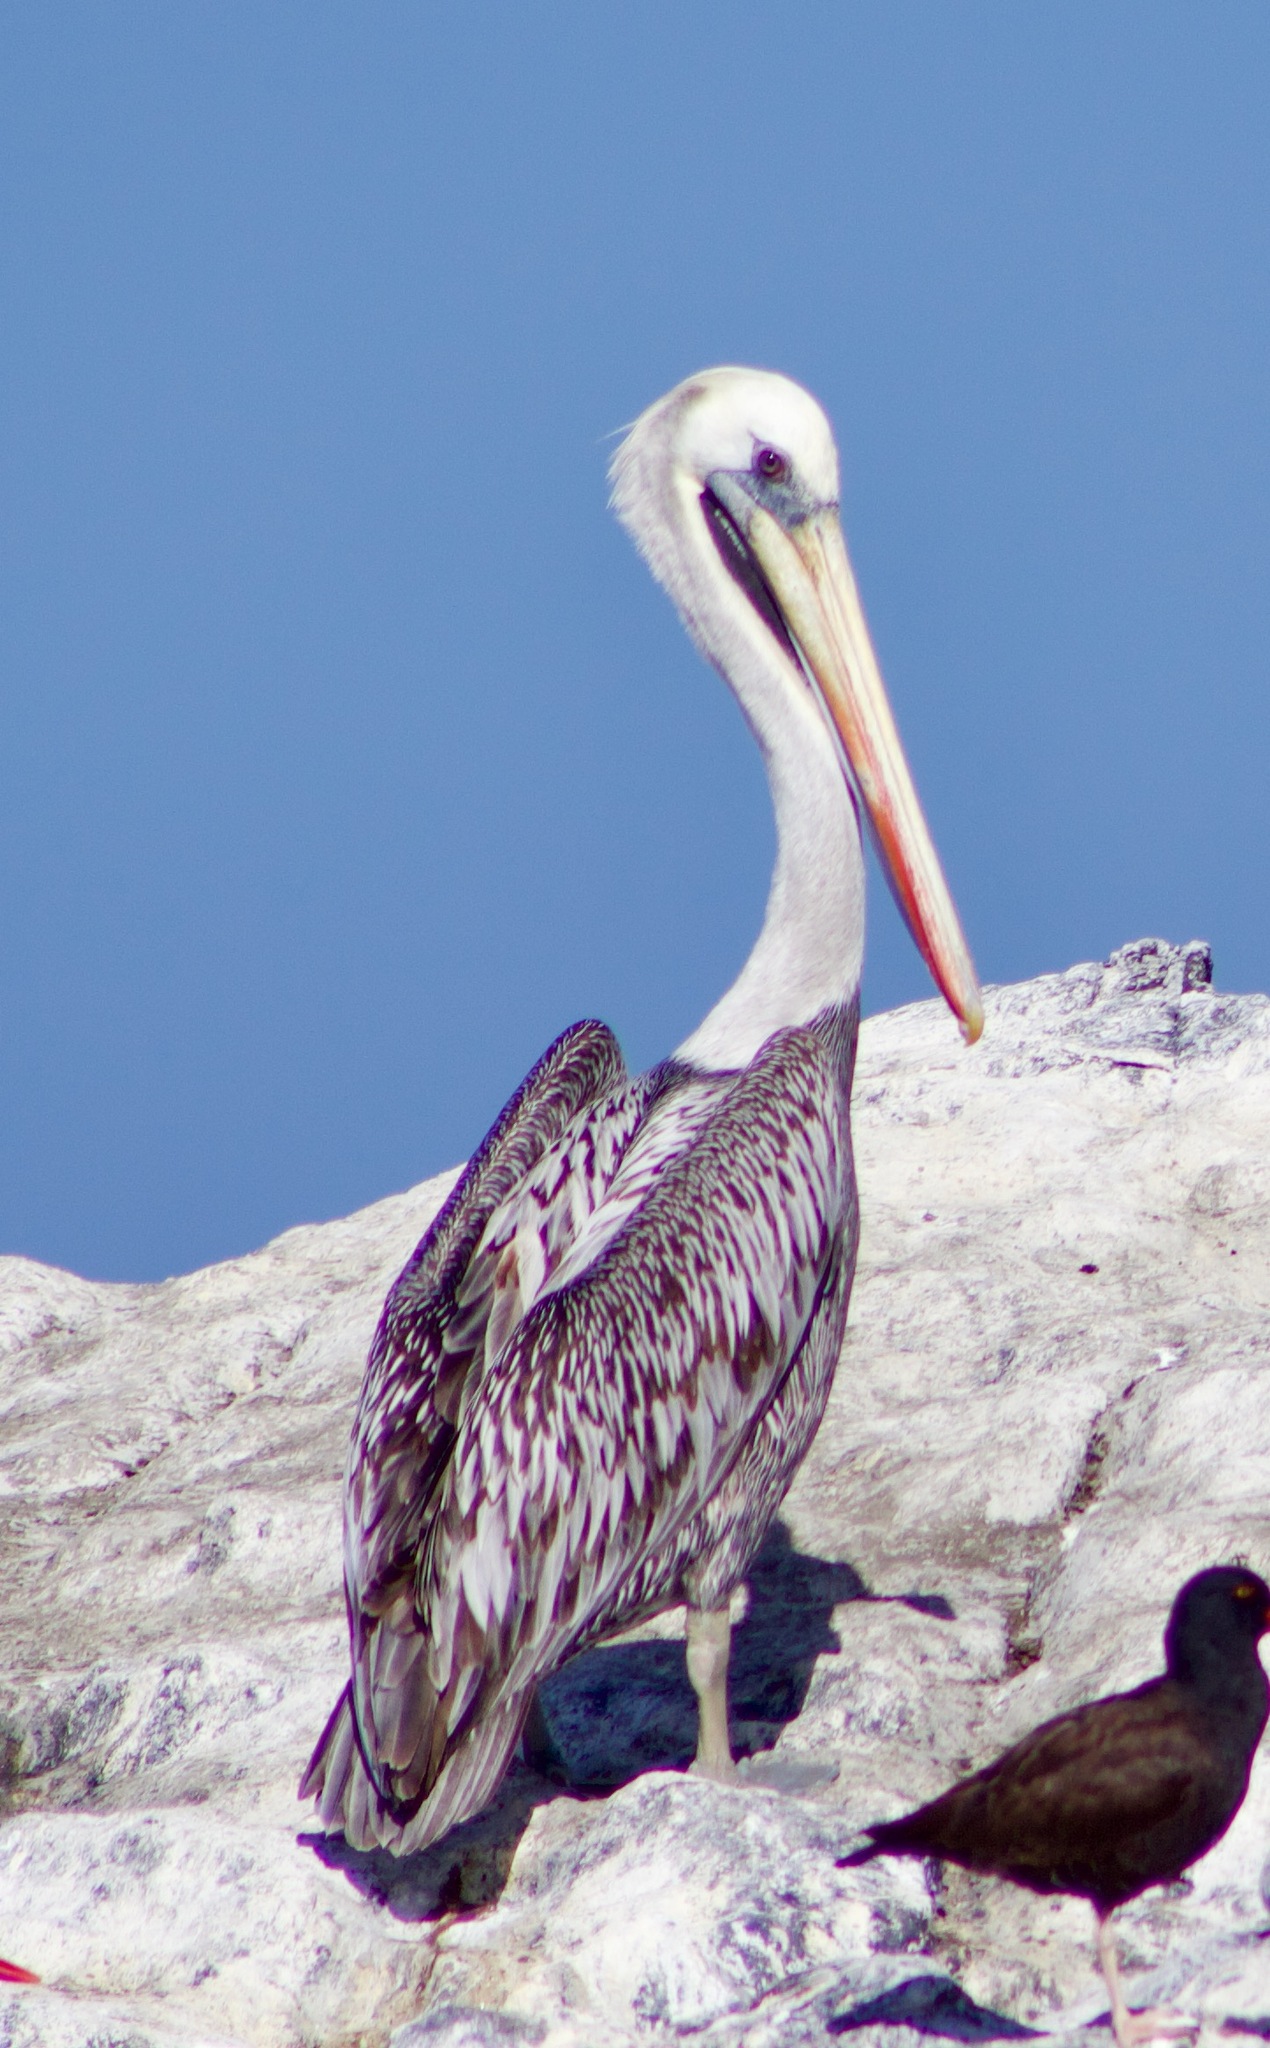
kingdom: Animalia
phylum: Chordata
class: Aves
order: Pelecaniformes
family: Pelecanidae
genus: Pelecanus
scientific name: Pelecanus thagus
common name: Peruvian pelican
